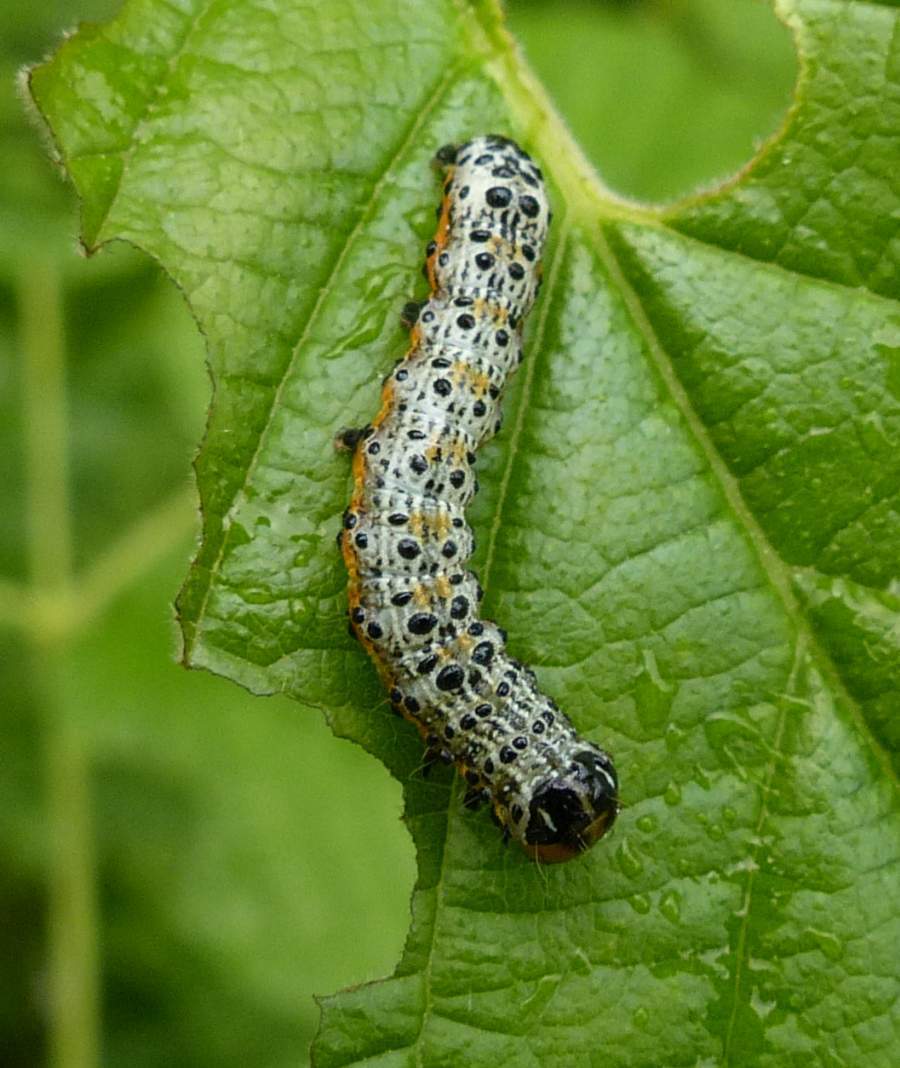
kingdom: Animalia
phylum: Arthropoda
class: Insecta
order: Lepidoptera
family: Noctuidae
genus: Pyrrhia
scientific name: Pyrrhia exprimens
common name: Purple-lined sallow
